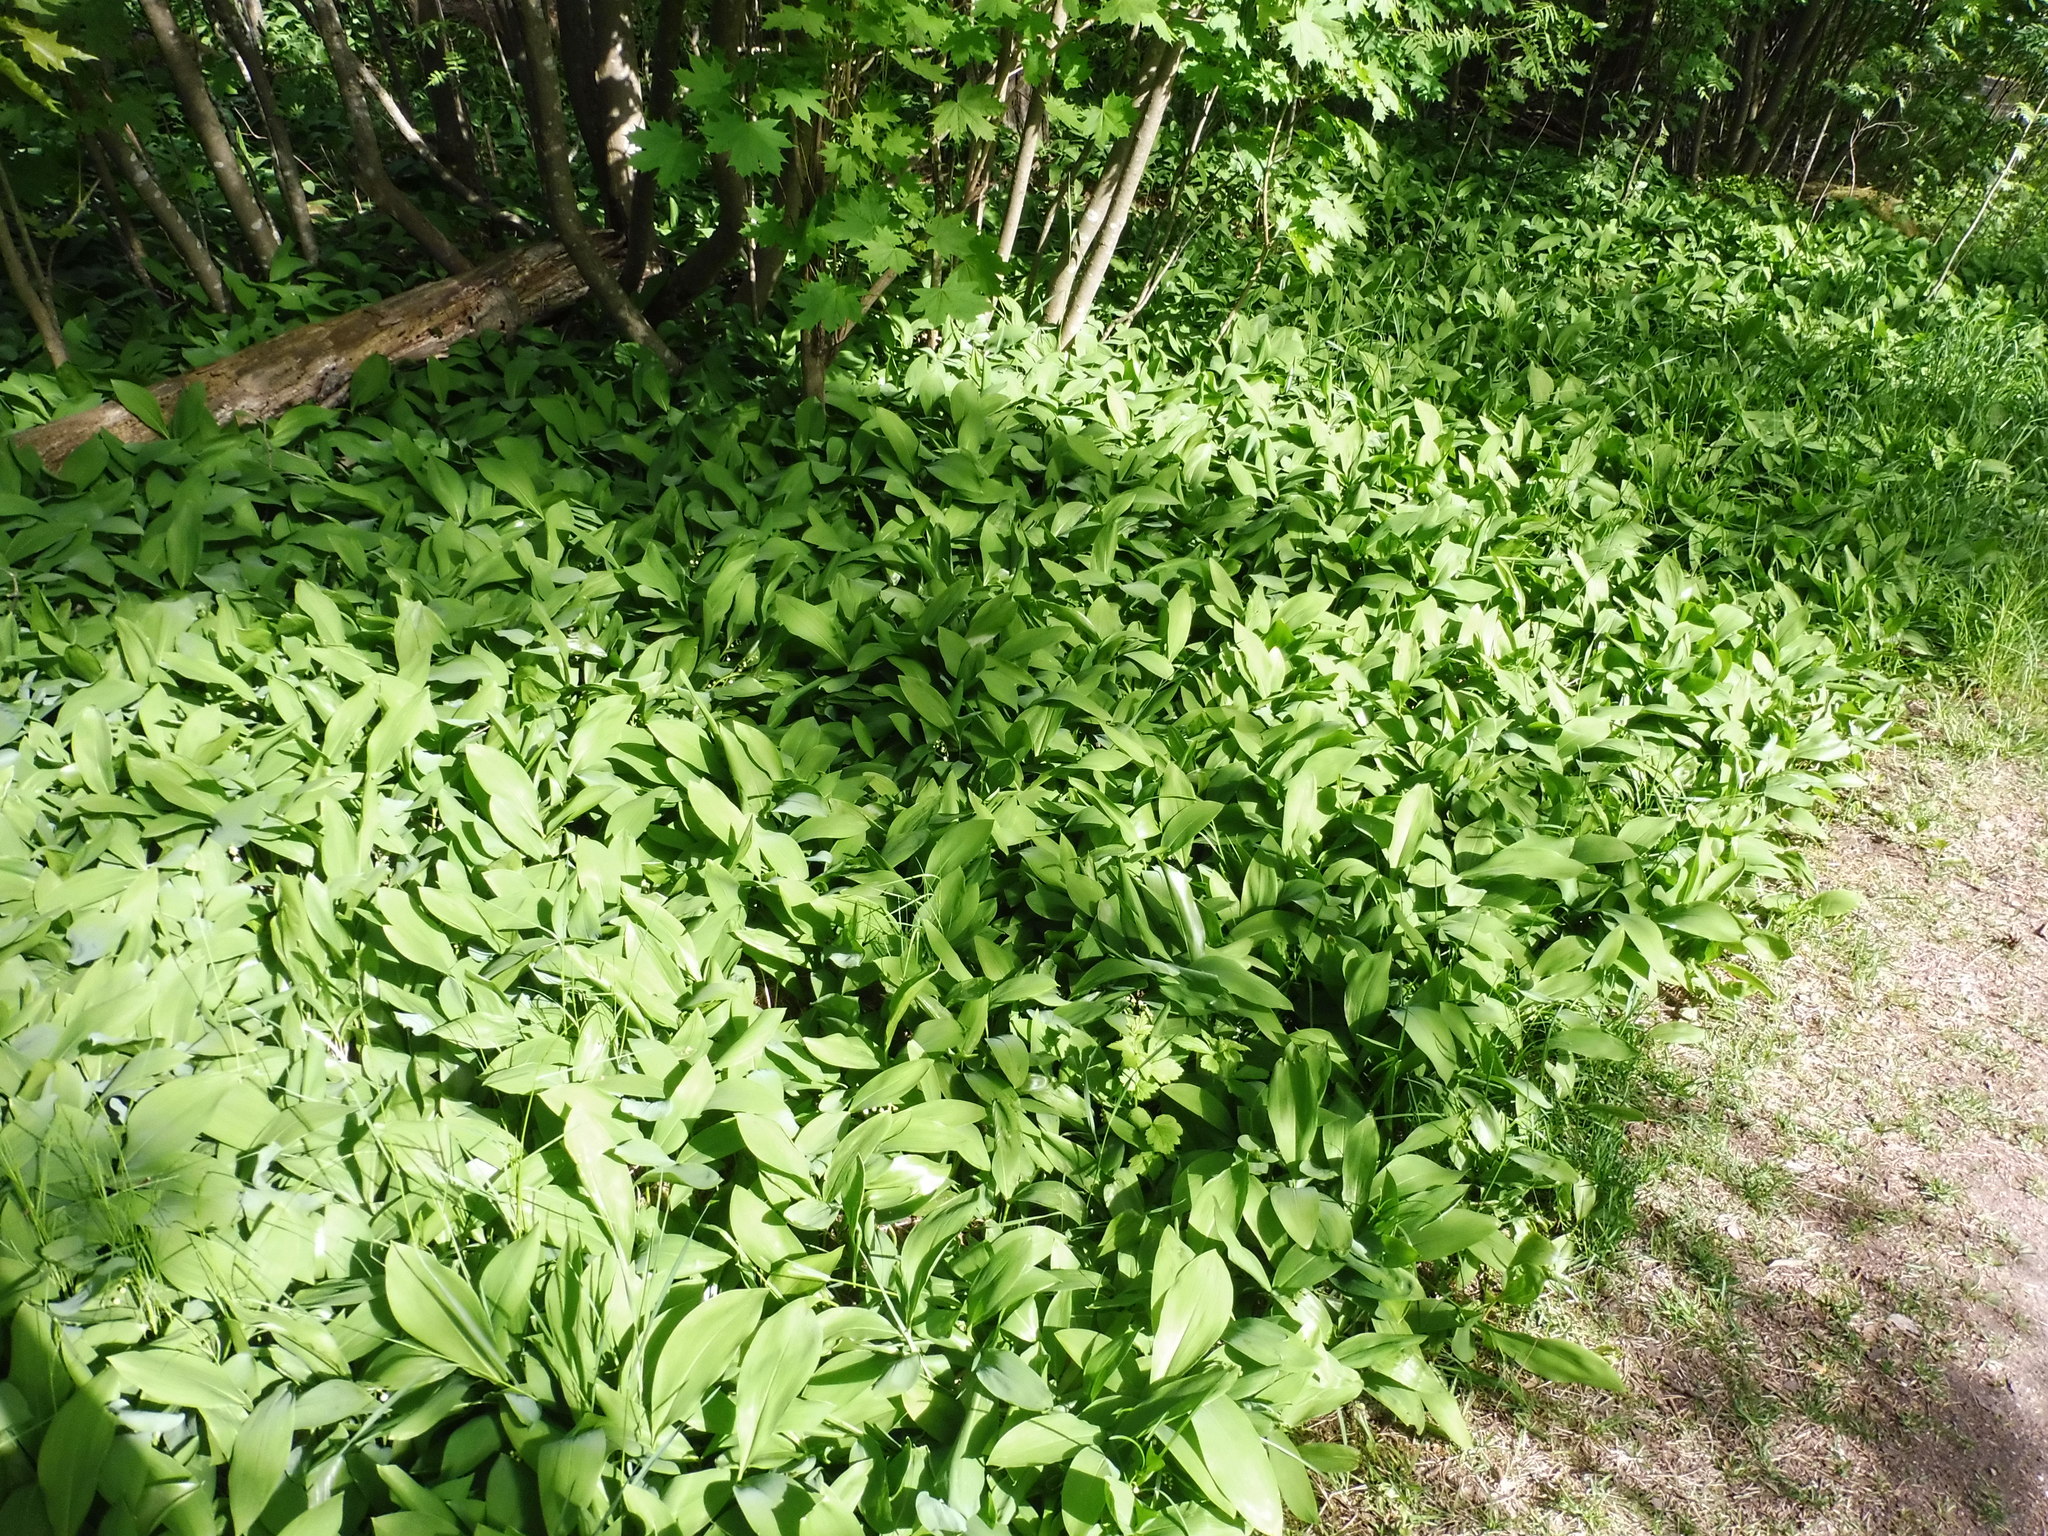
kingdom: Plantae
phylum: Tracheophyta
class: Liliopsida
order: Asparagales
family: Asparagaceae
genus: Convallaria
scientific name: Convallaria majalis
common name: Lily-of-the-valley
